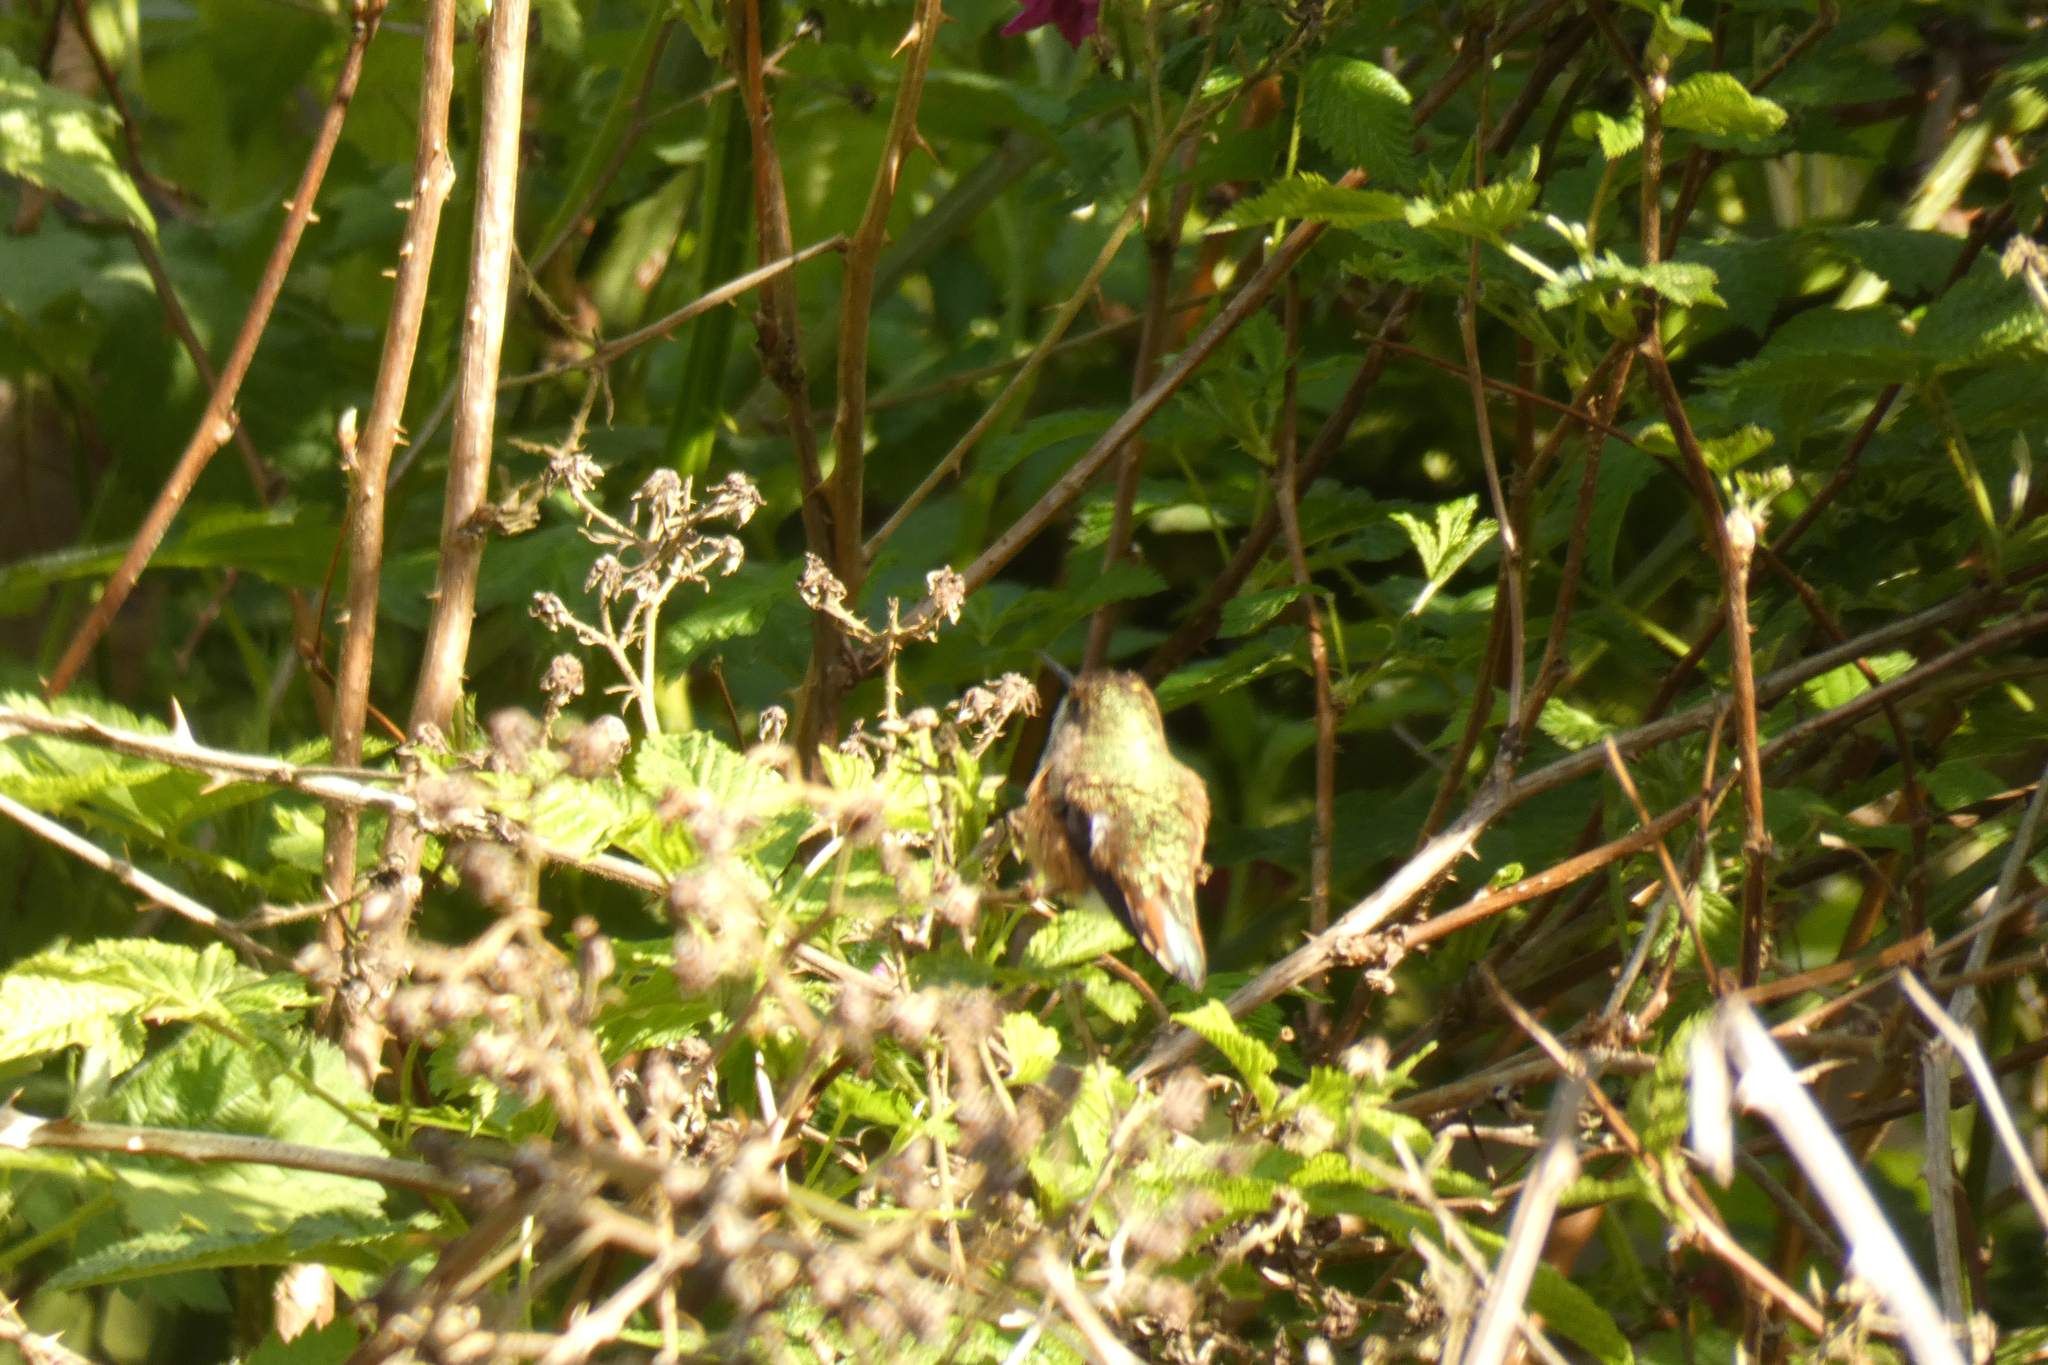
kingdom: Animalia
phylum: Chordata
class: Aves
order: Apodiformes
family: Trochilidae
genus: Selasphorus
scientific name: Selasphorus rufus
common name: Rufous hummingbird
